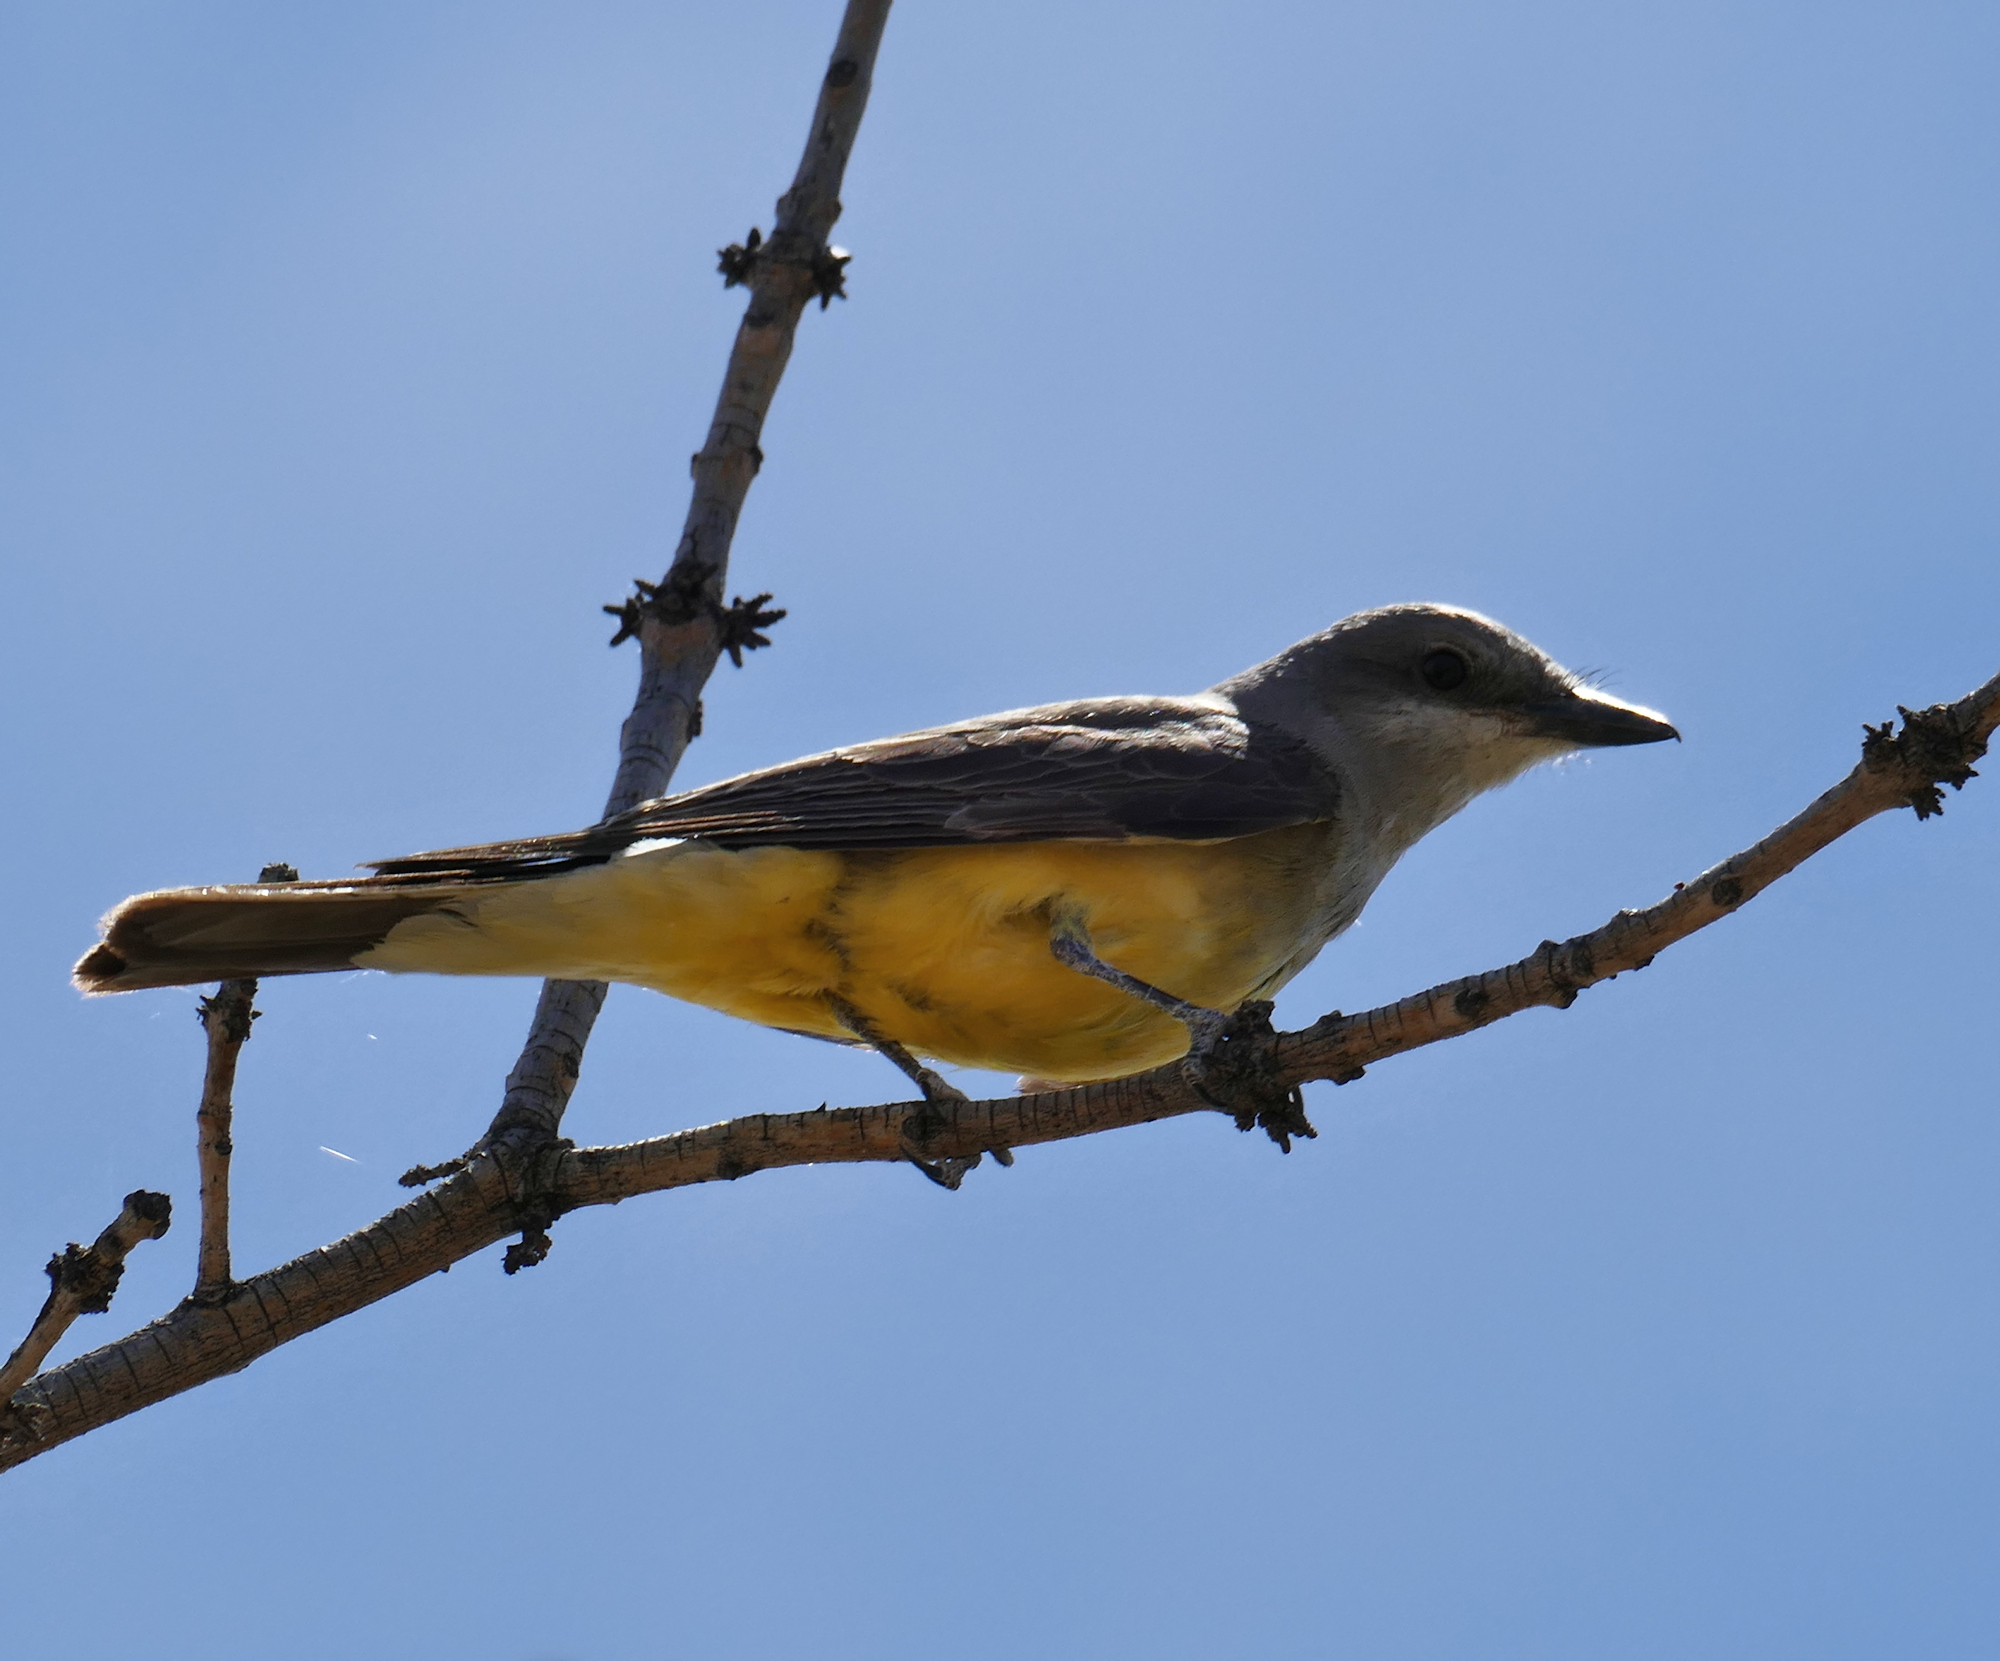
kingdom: Animalia
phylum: Chordata
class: Aves
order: Passeriformes
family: Tyrannidae
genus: Tyrannus
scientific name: Tyrannus verticalis
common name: Western kingbird
